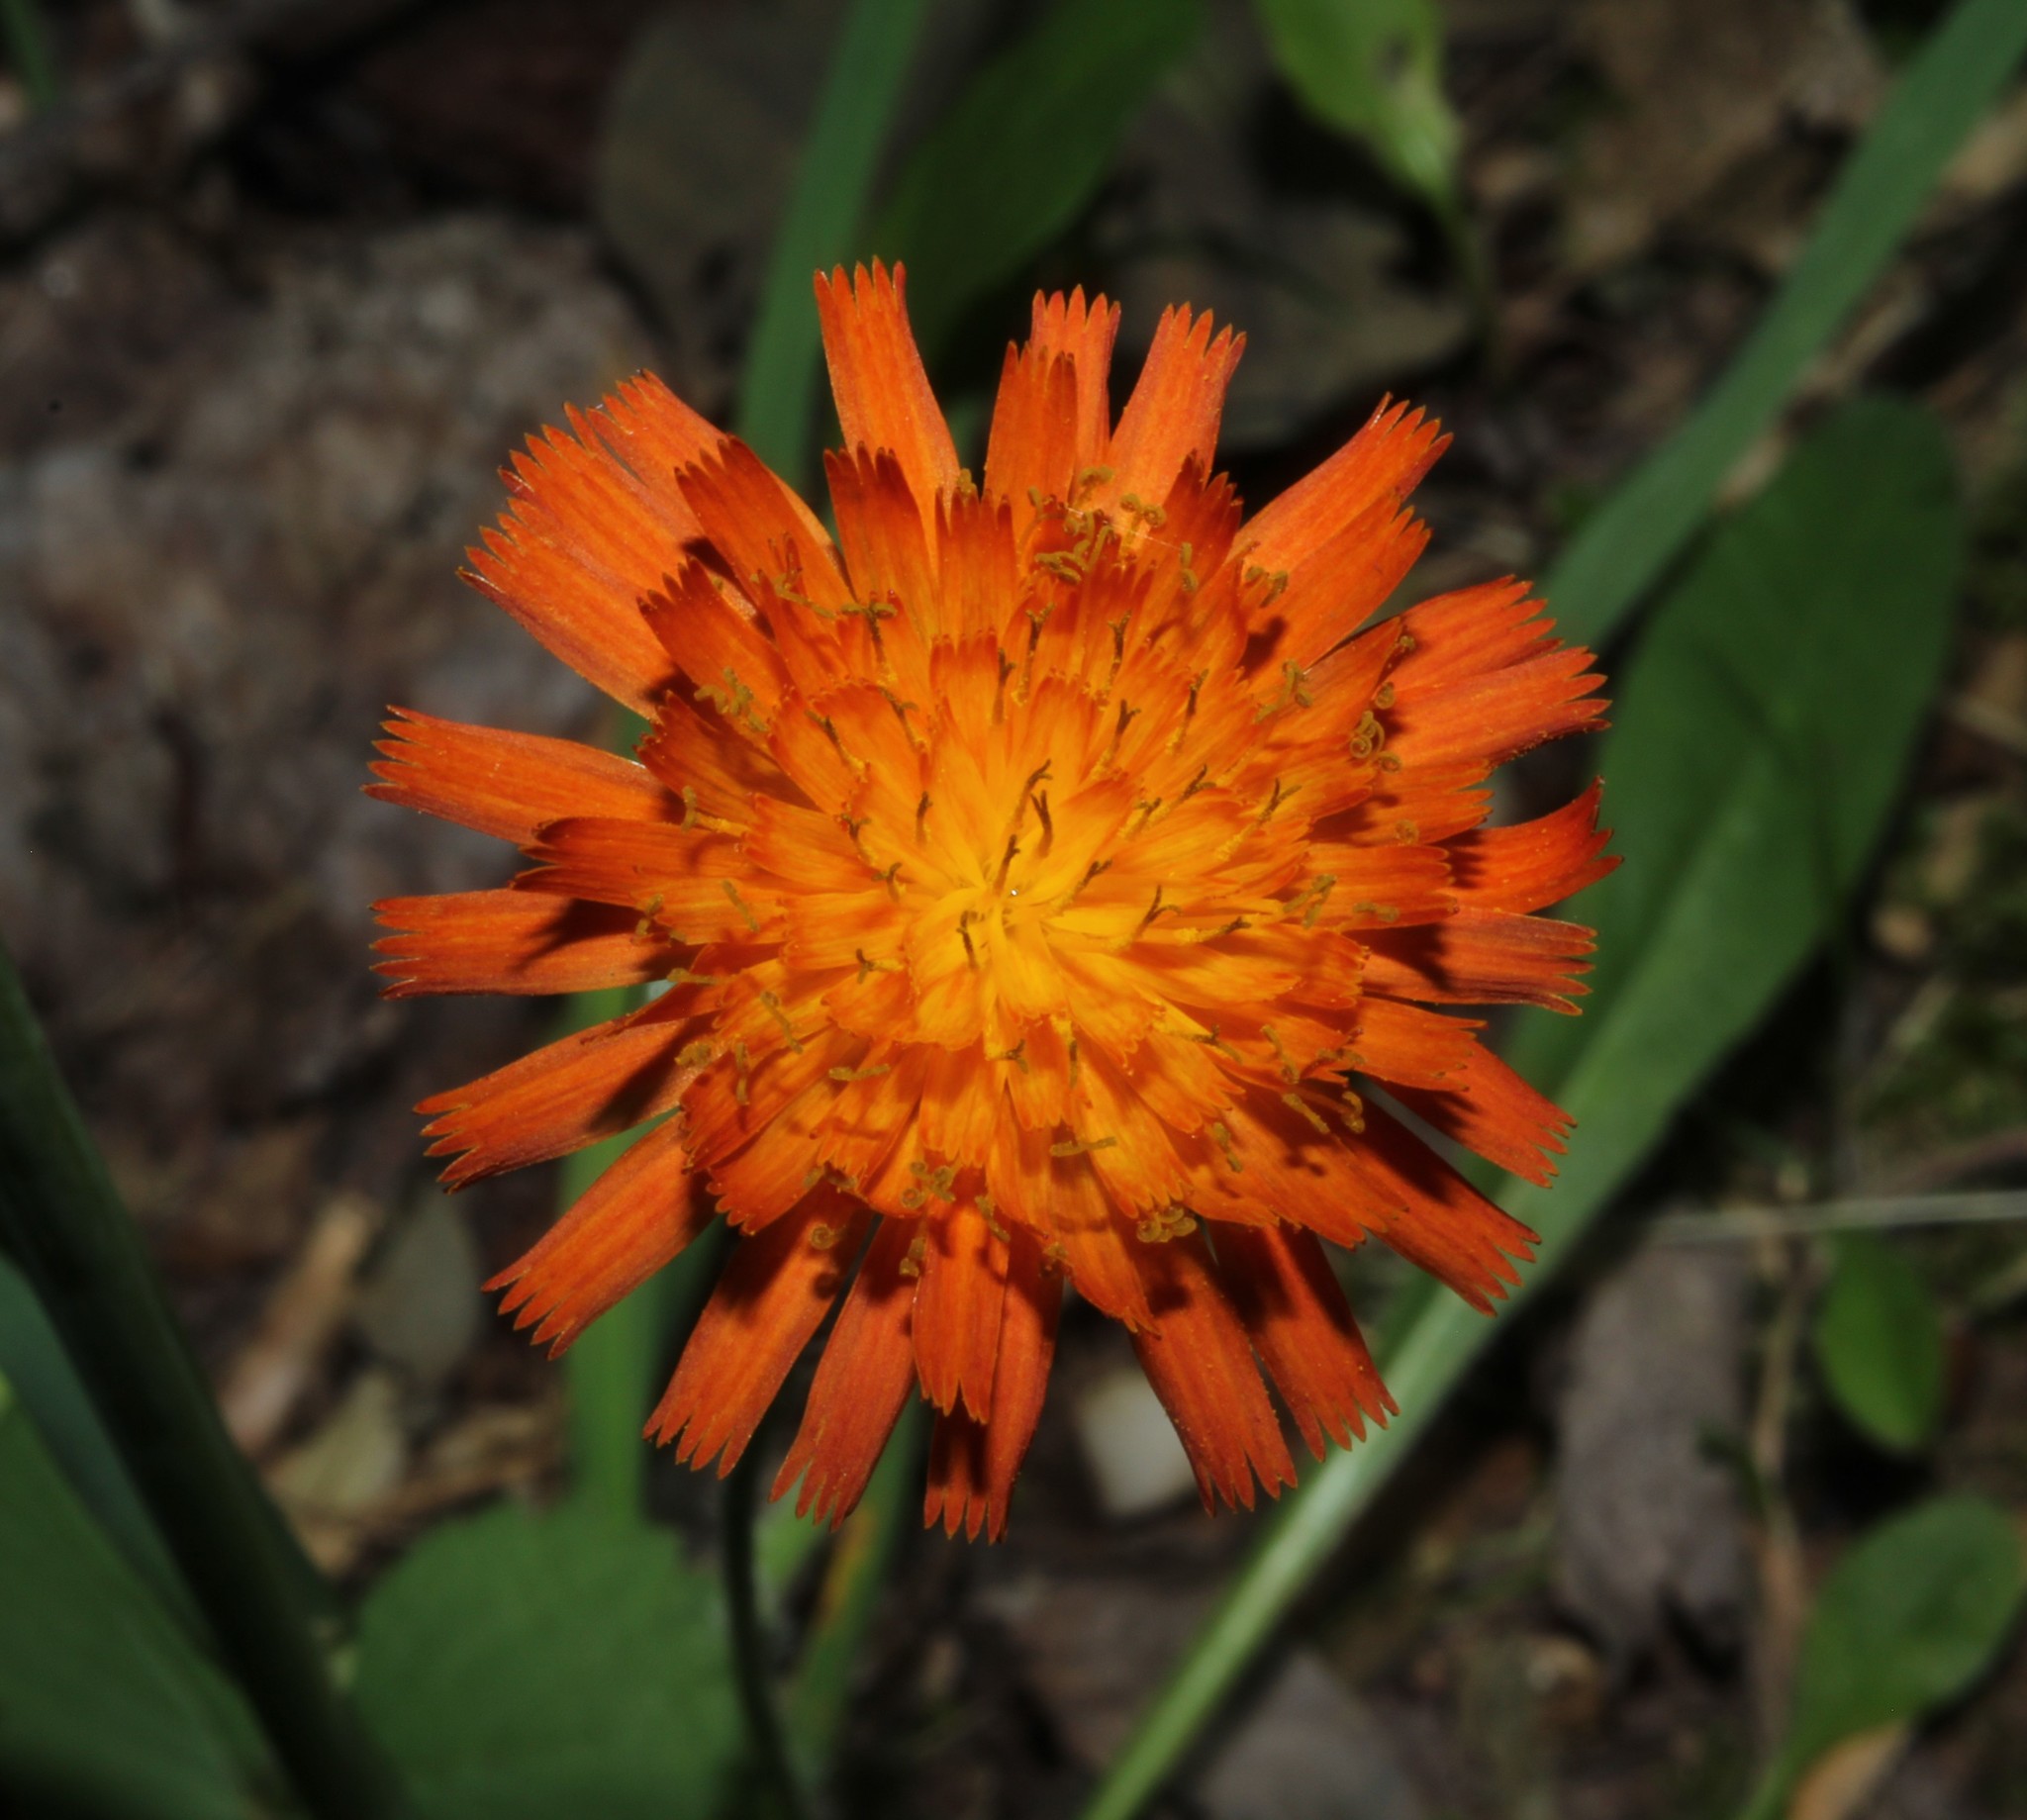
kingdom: Plantae
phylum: Tracheophyta
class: Magnoliopsida
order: Asterales
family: Asteraceae
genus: Pilosella
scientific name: Pilosella aurantiaca
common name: Fox-and-cubs
